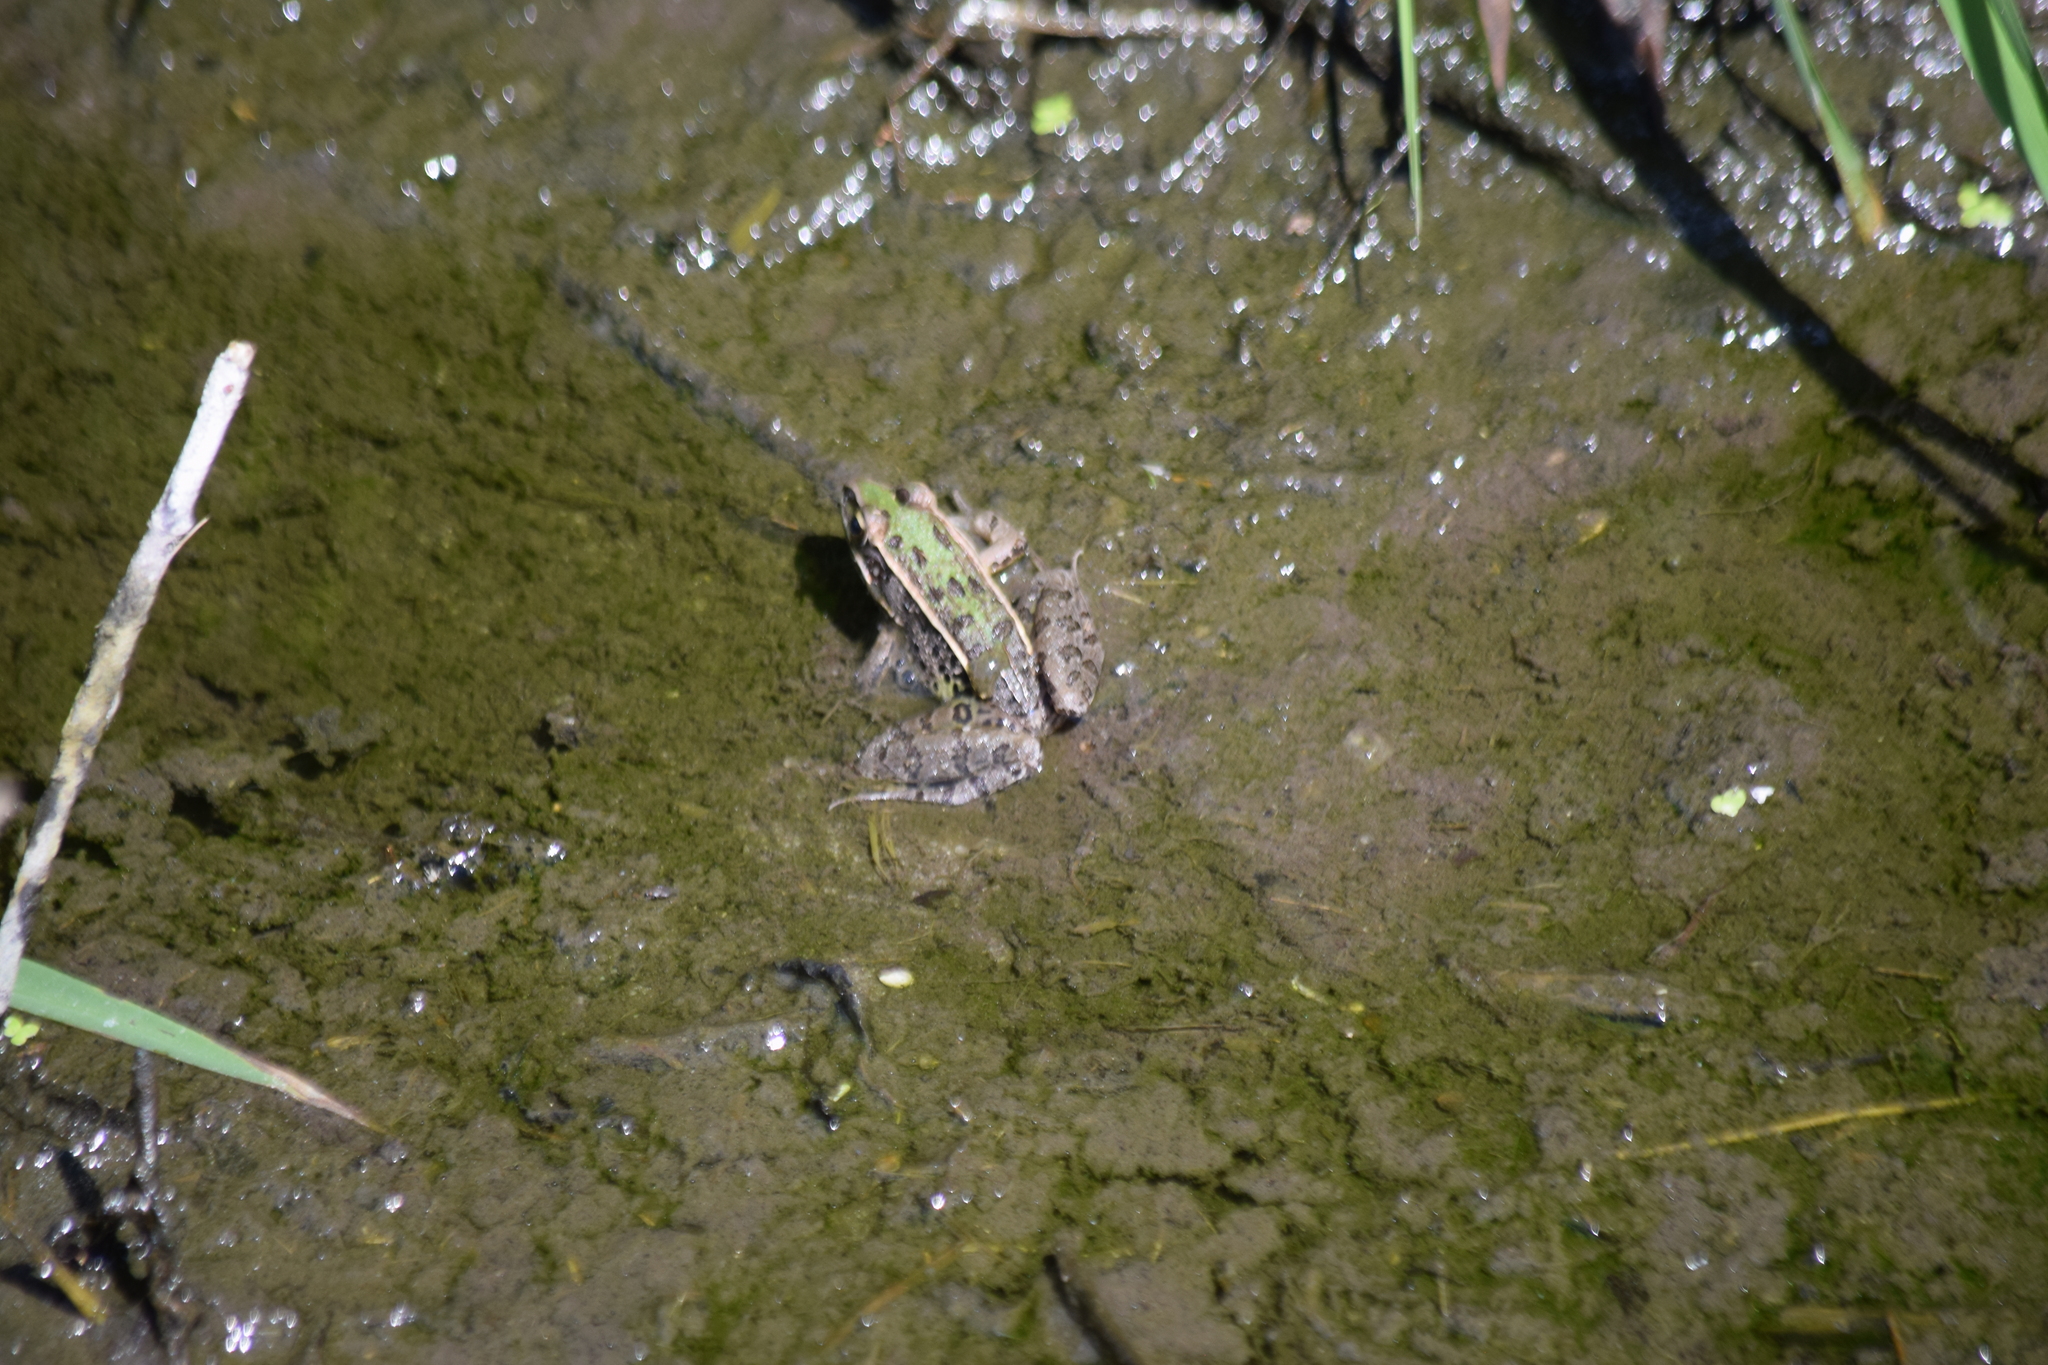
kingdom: Animalia
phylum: Chordata
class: Amphibia
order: Anura
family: Ranidae
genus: Lithobates
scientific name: Lithobates sphenocephalus
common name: Southern leopard frog
